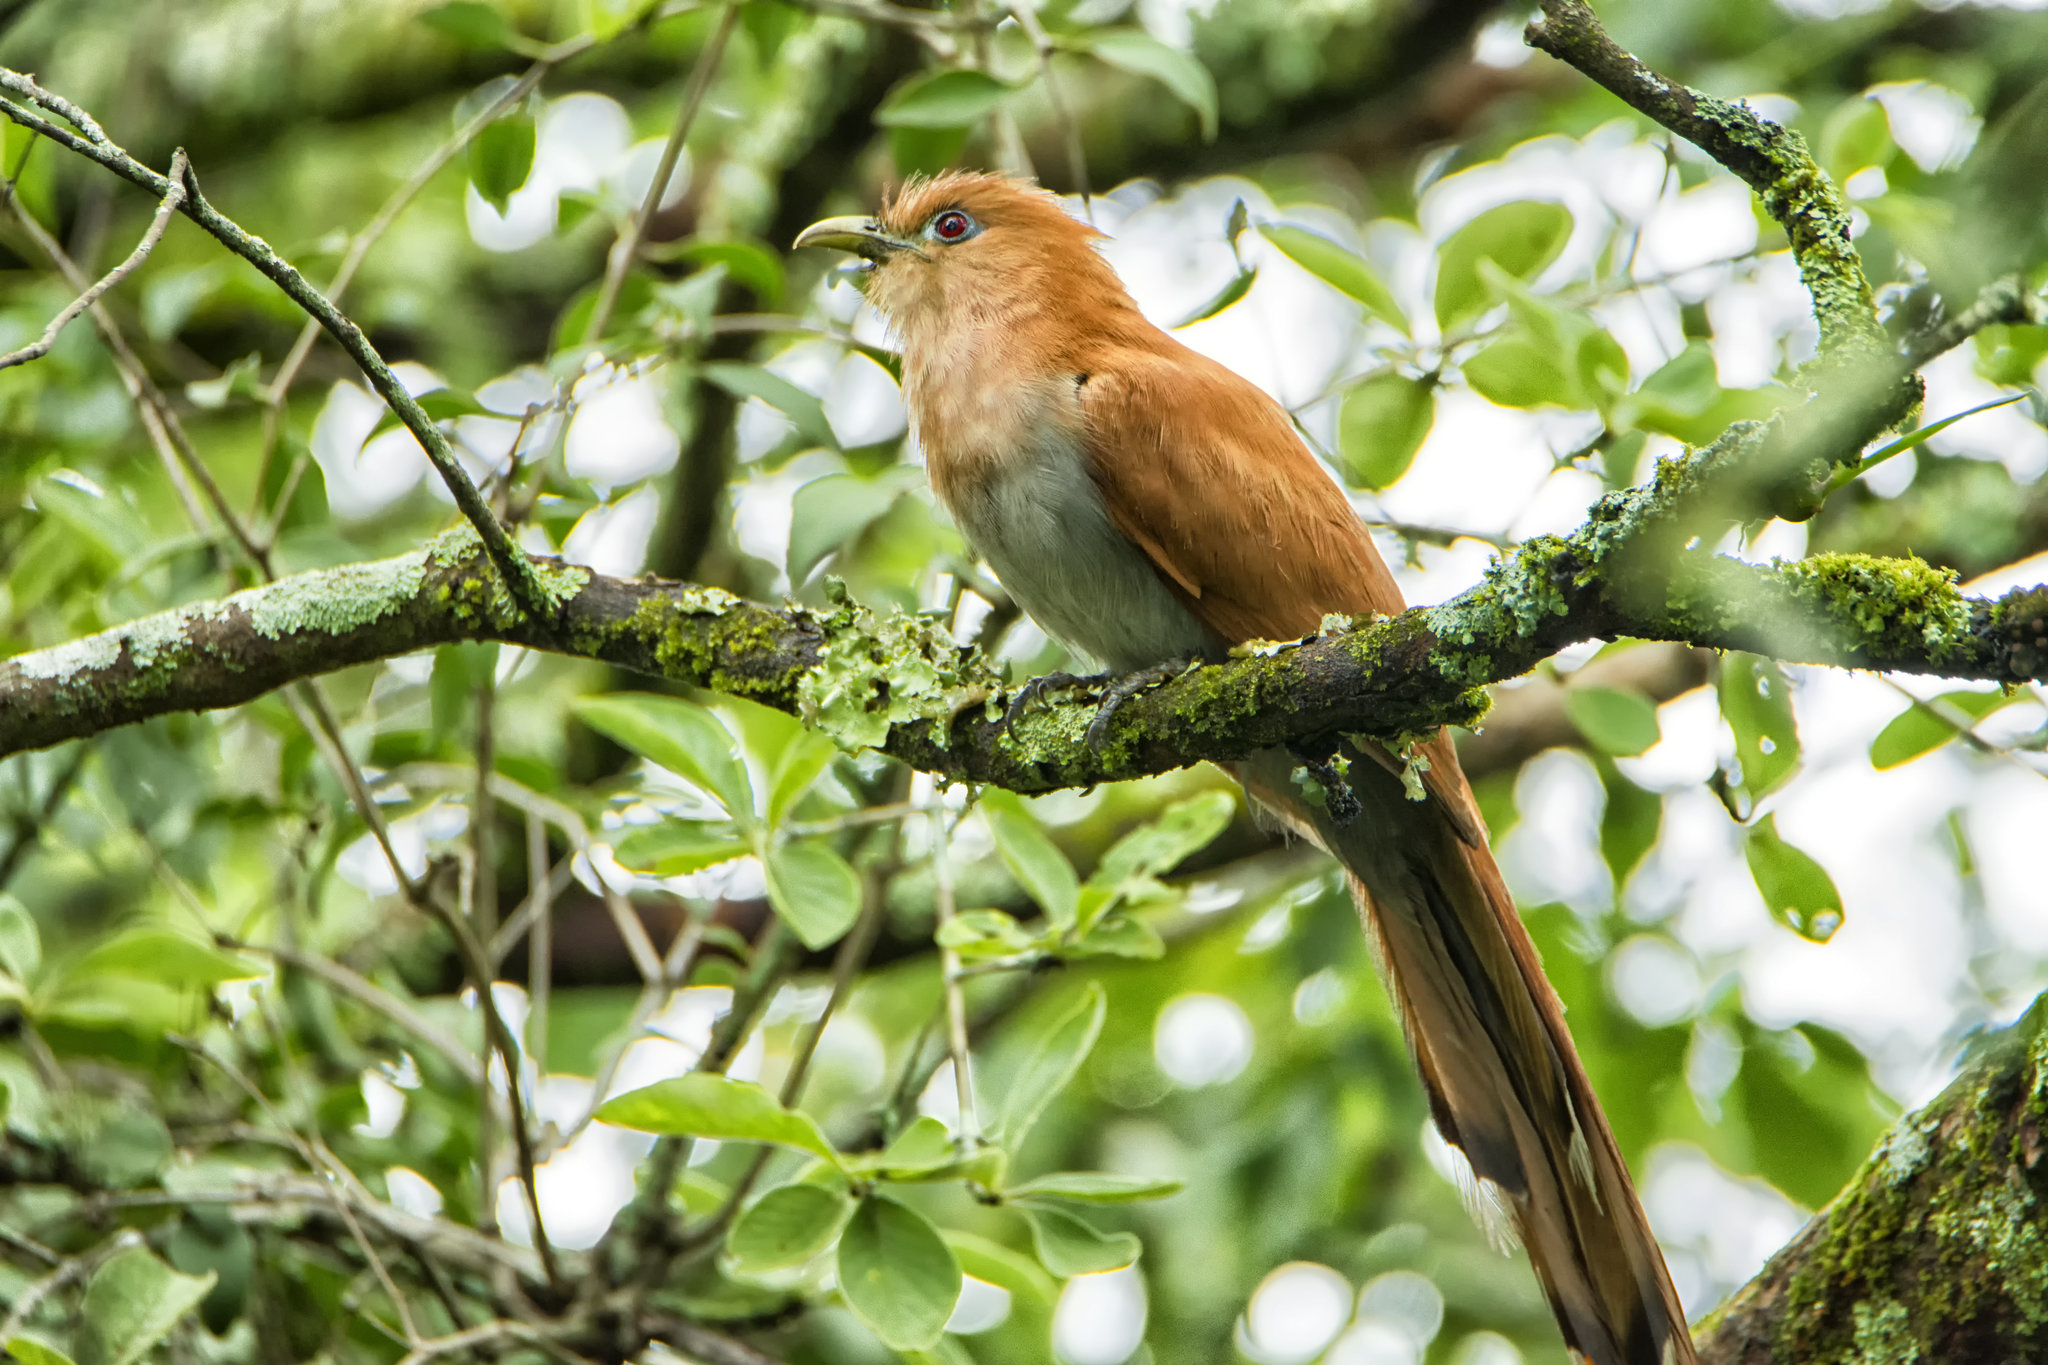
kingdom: Animalia
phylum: Chordata
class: Aves
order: Cuculiformes
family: Cuculidae
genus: Piaya
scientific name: Piaya cayana
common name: Squirrel cuckoo
